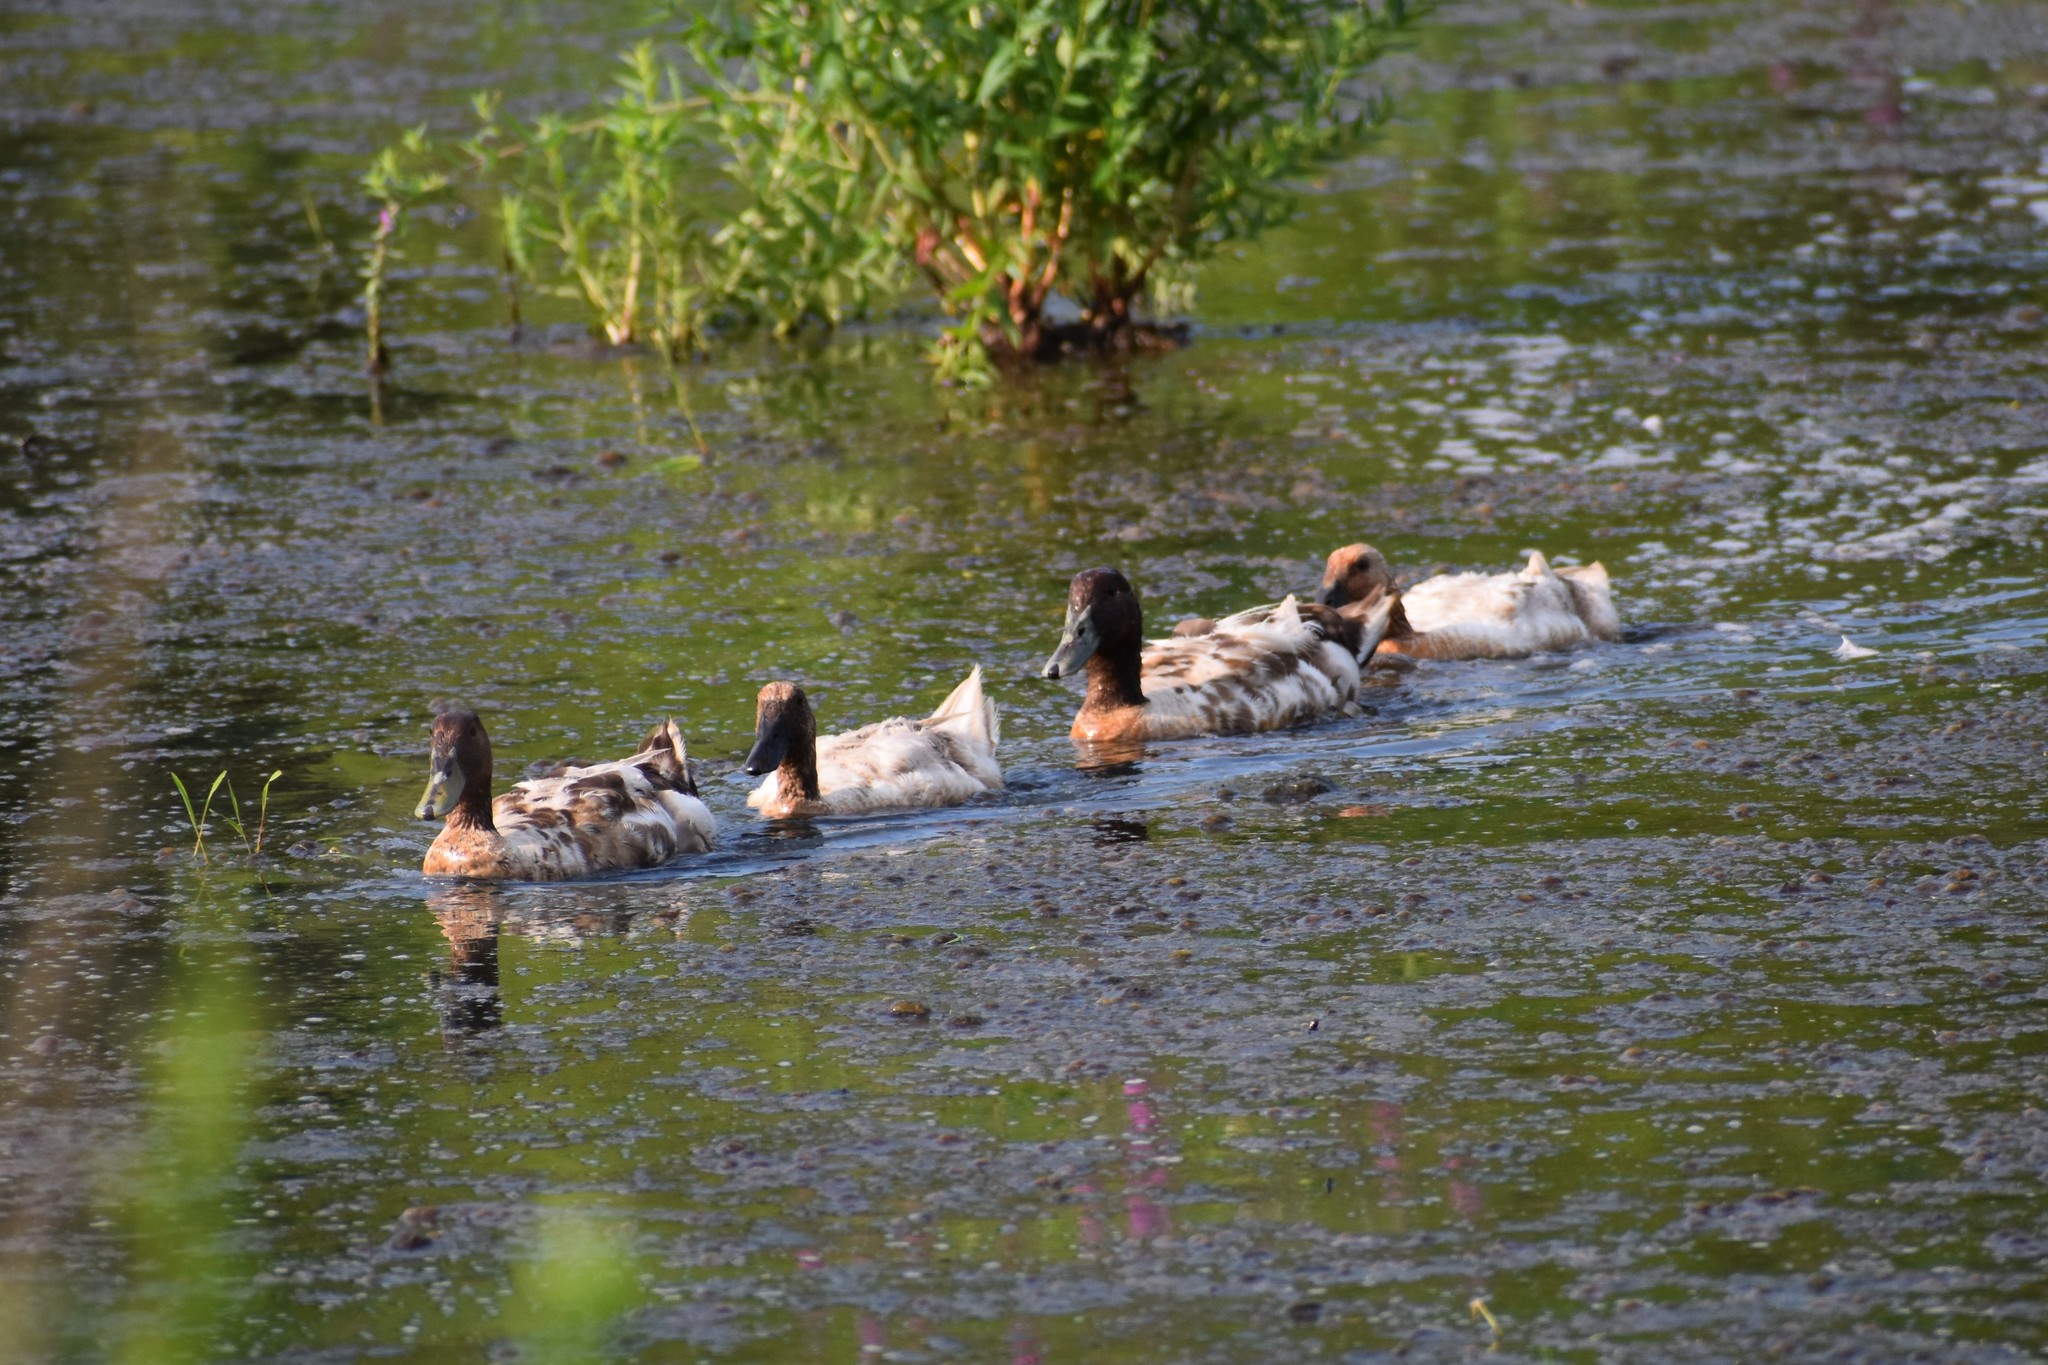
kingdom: Animalia
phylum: Chordata
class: Aves
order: Anseriformes
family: Anatidae
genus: Anas
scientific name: Anas platyrhynchos
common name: Mallard
